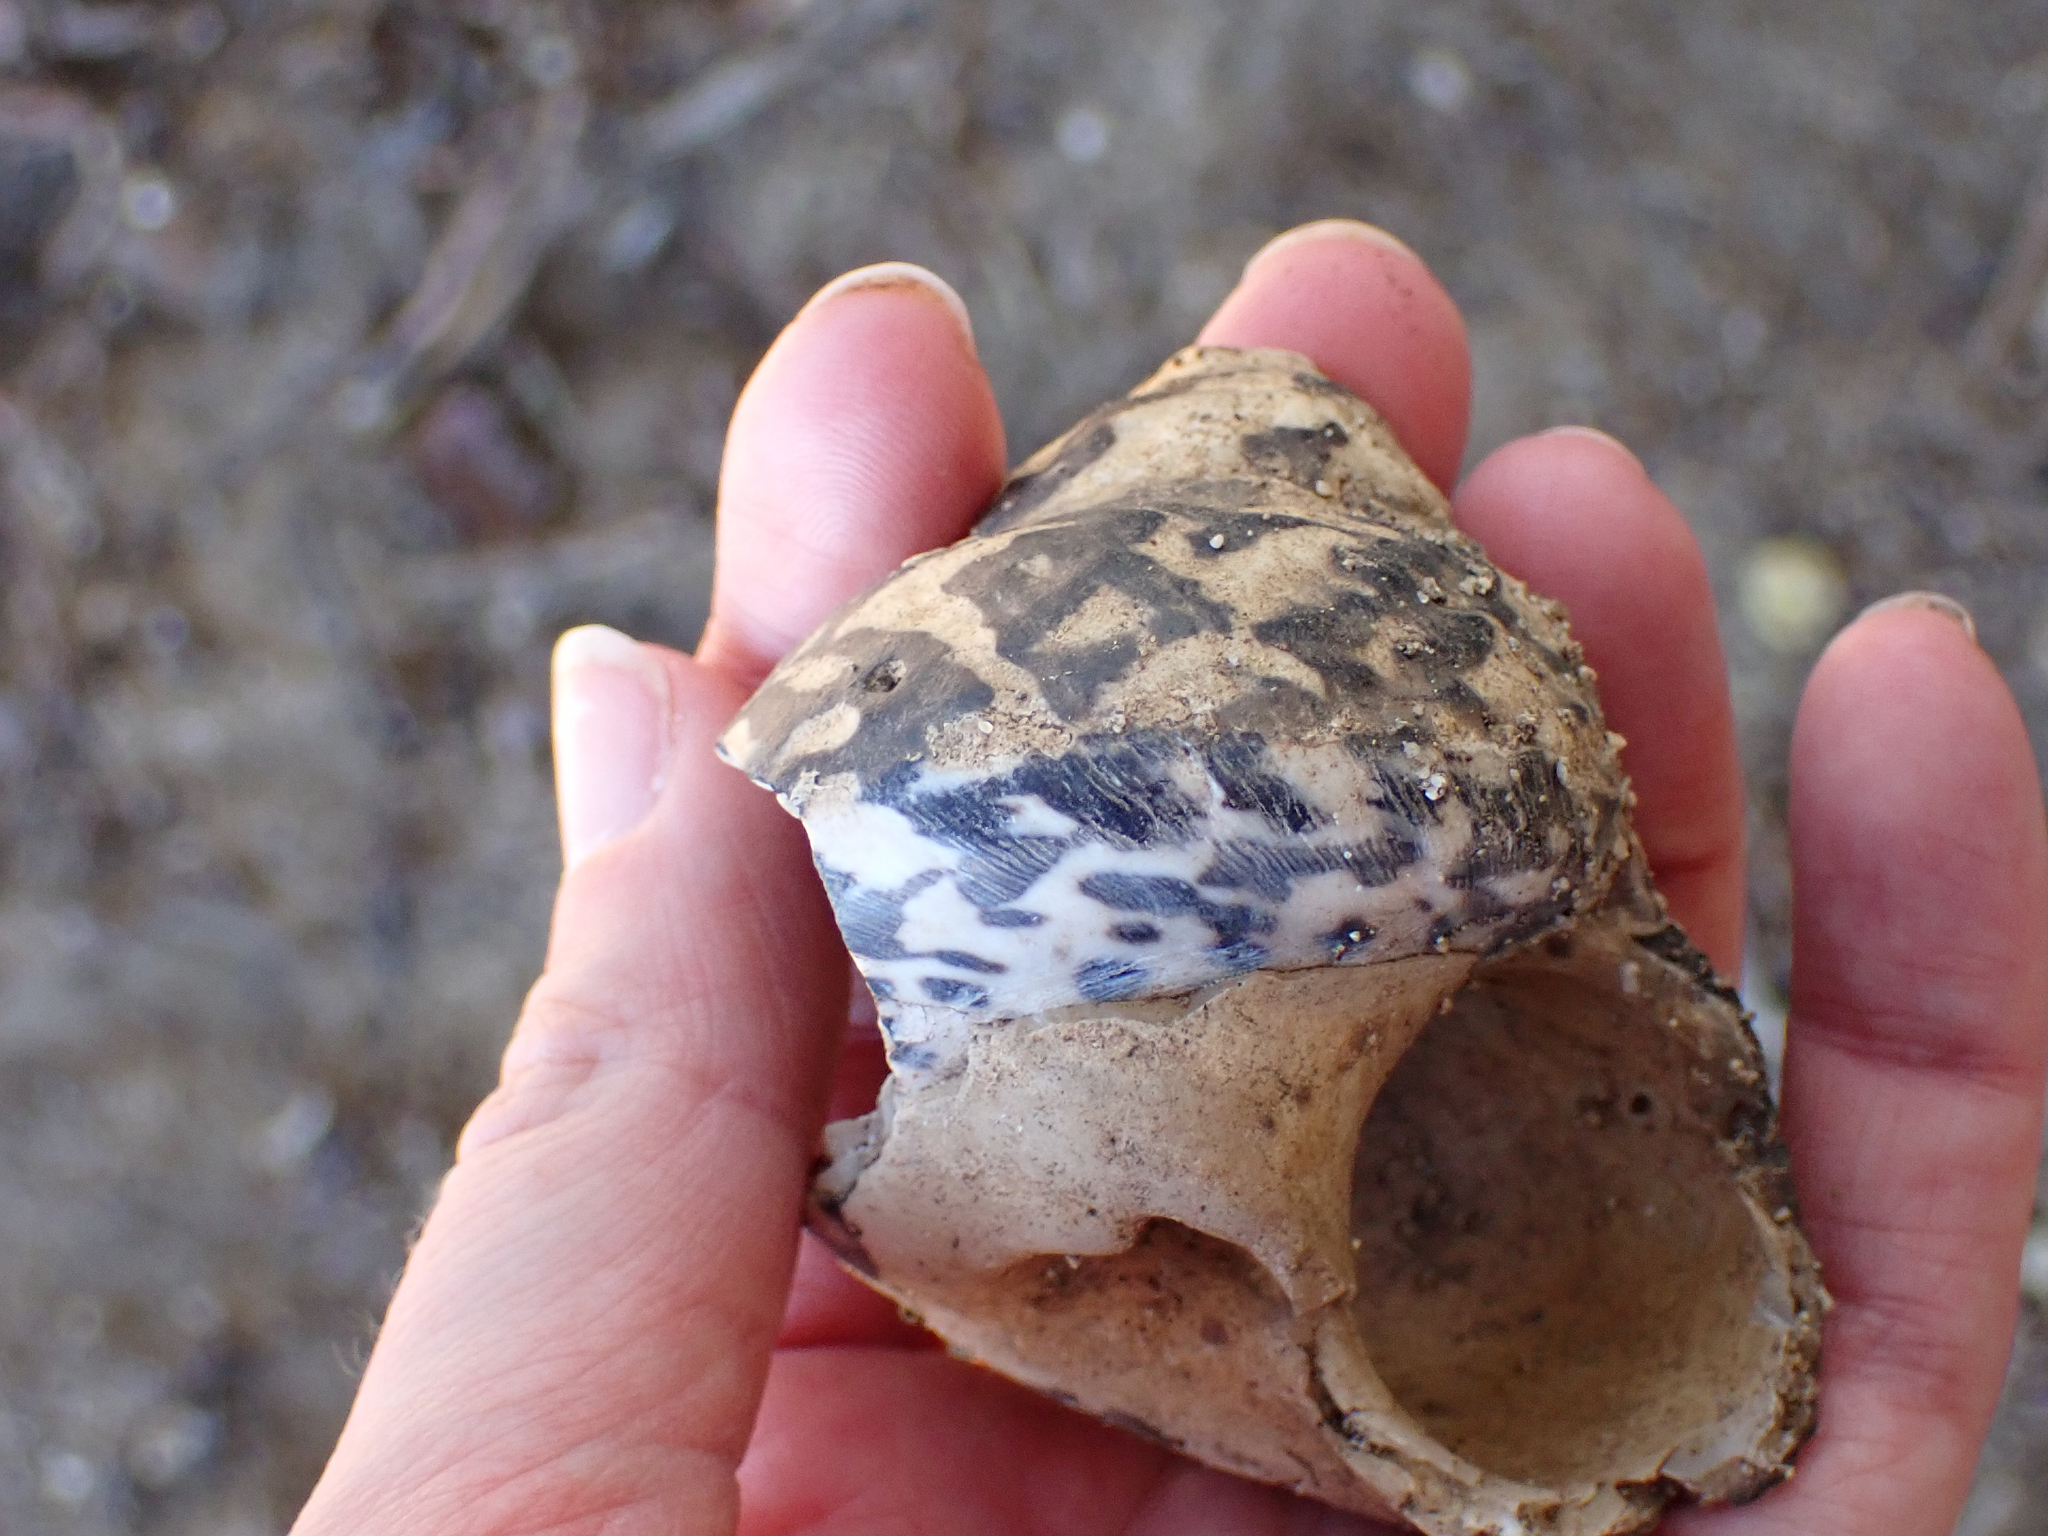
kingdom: Animalia
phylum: Mollusca
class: Gastropoda
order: Trochida
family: Tegulidae
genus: Cittarium
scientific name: Cittarium pica
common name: West indian topshell
